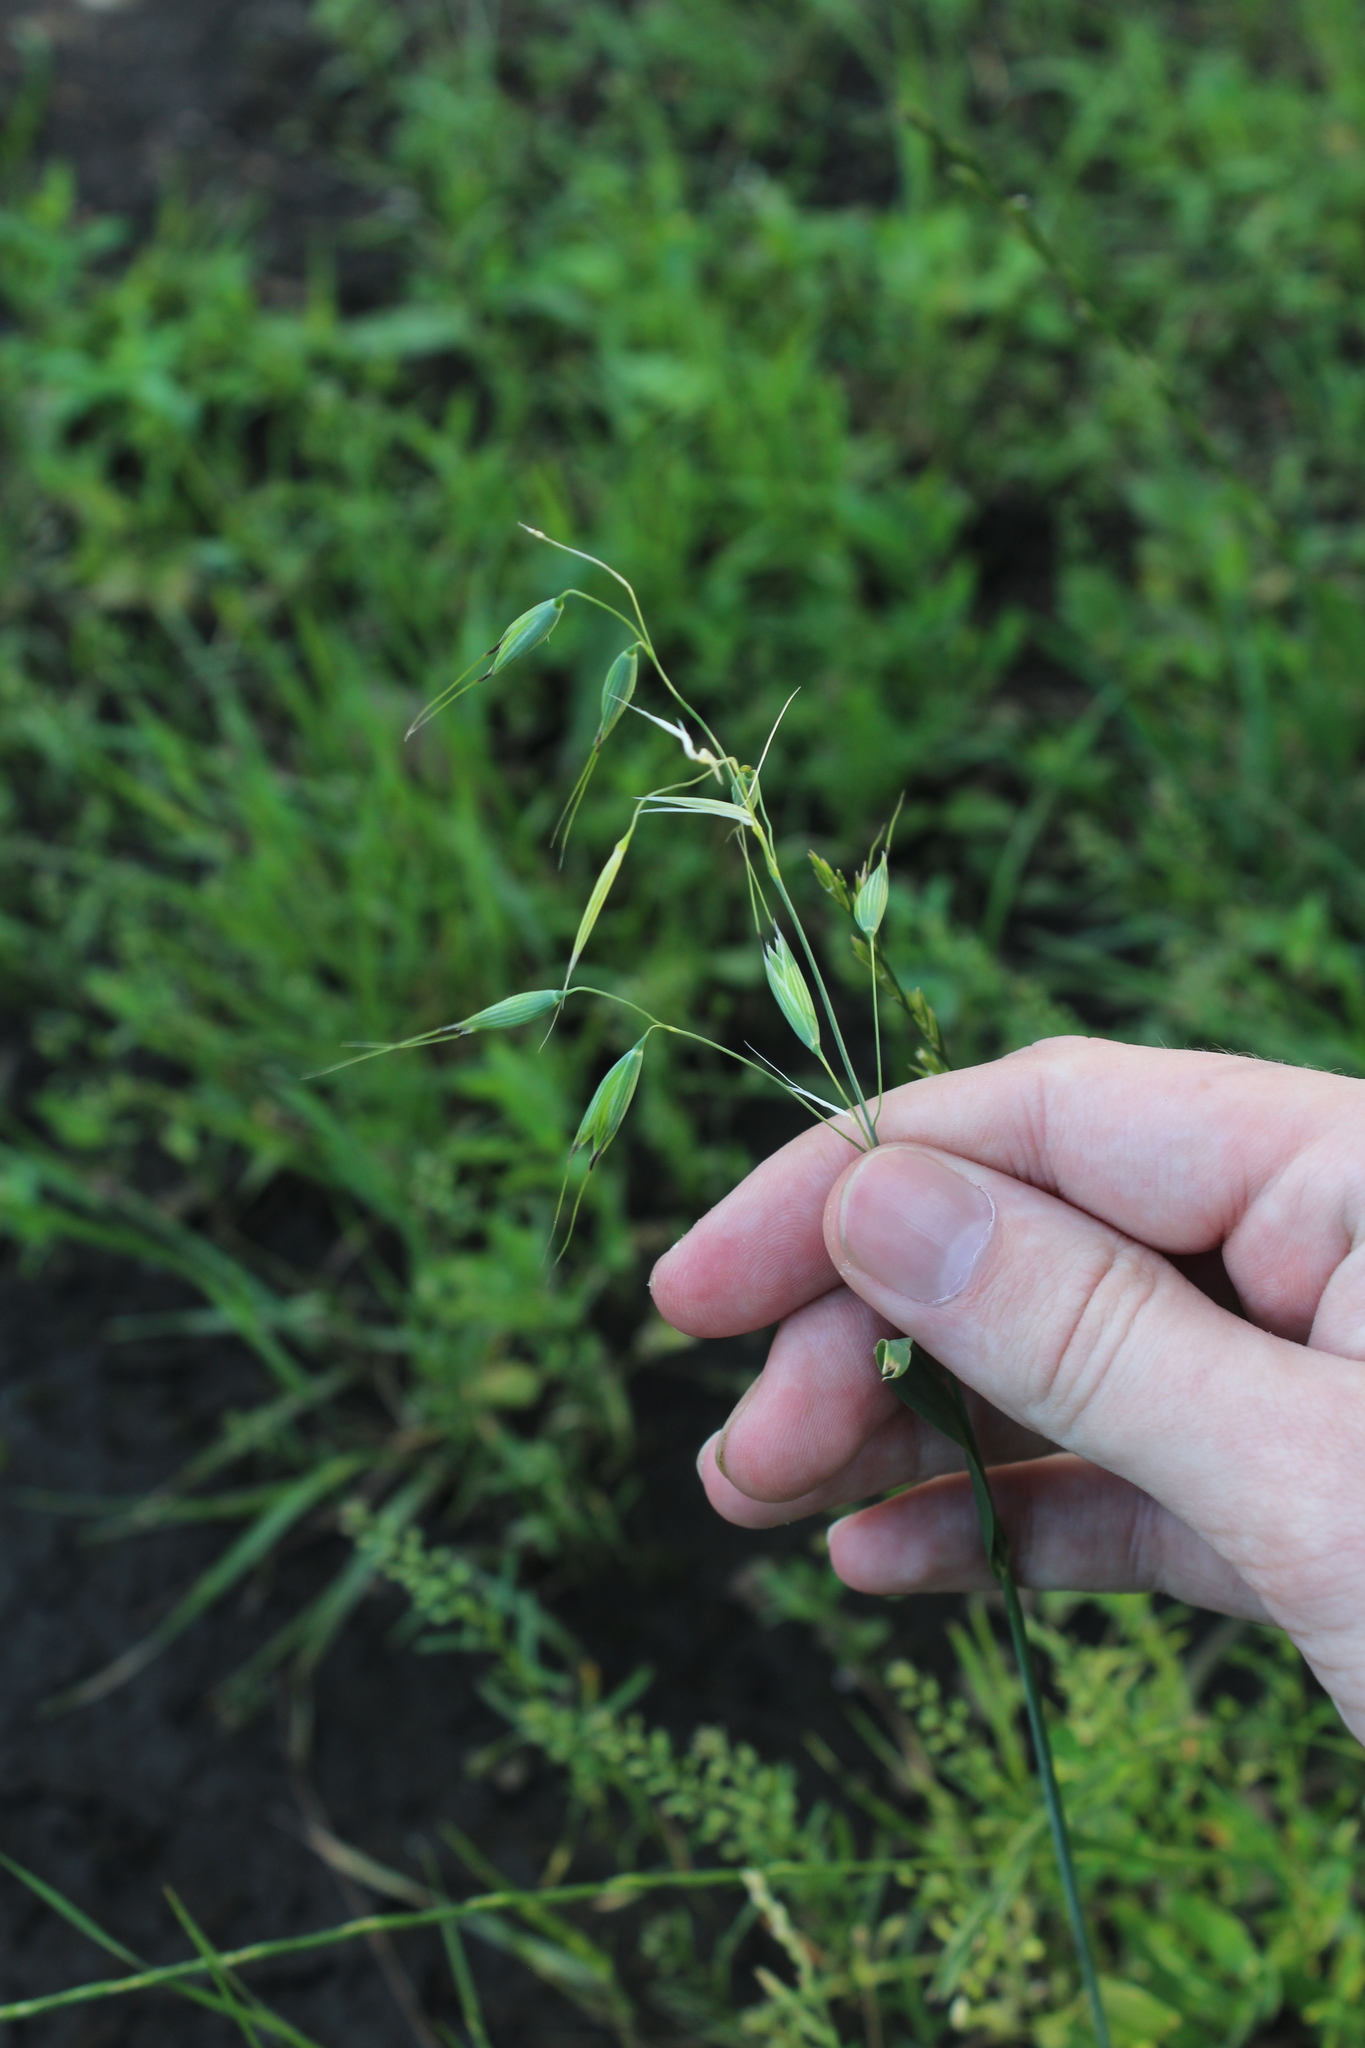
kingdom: Plantae
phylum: Tracheophyta
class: Liliopsida
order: Poales
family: Poaceae
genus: Avena
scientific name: Avena fatua
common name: Wild oat
